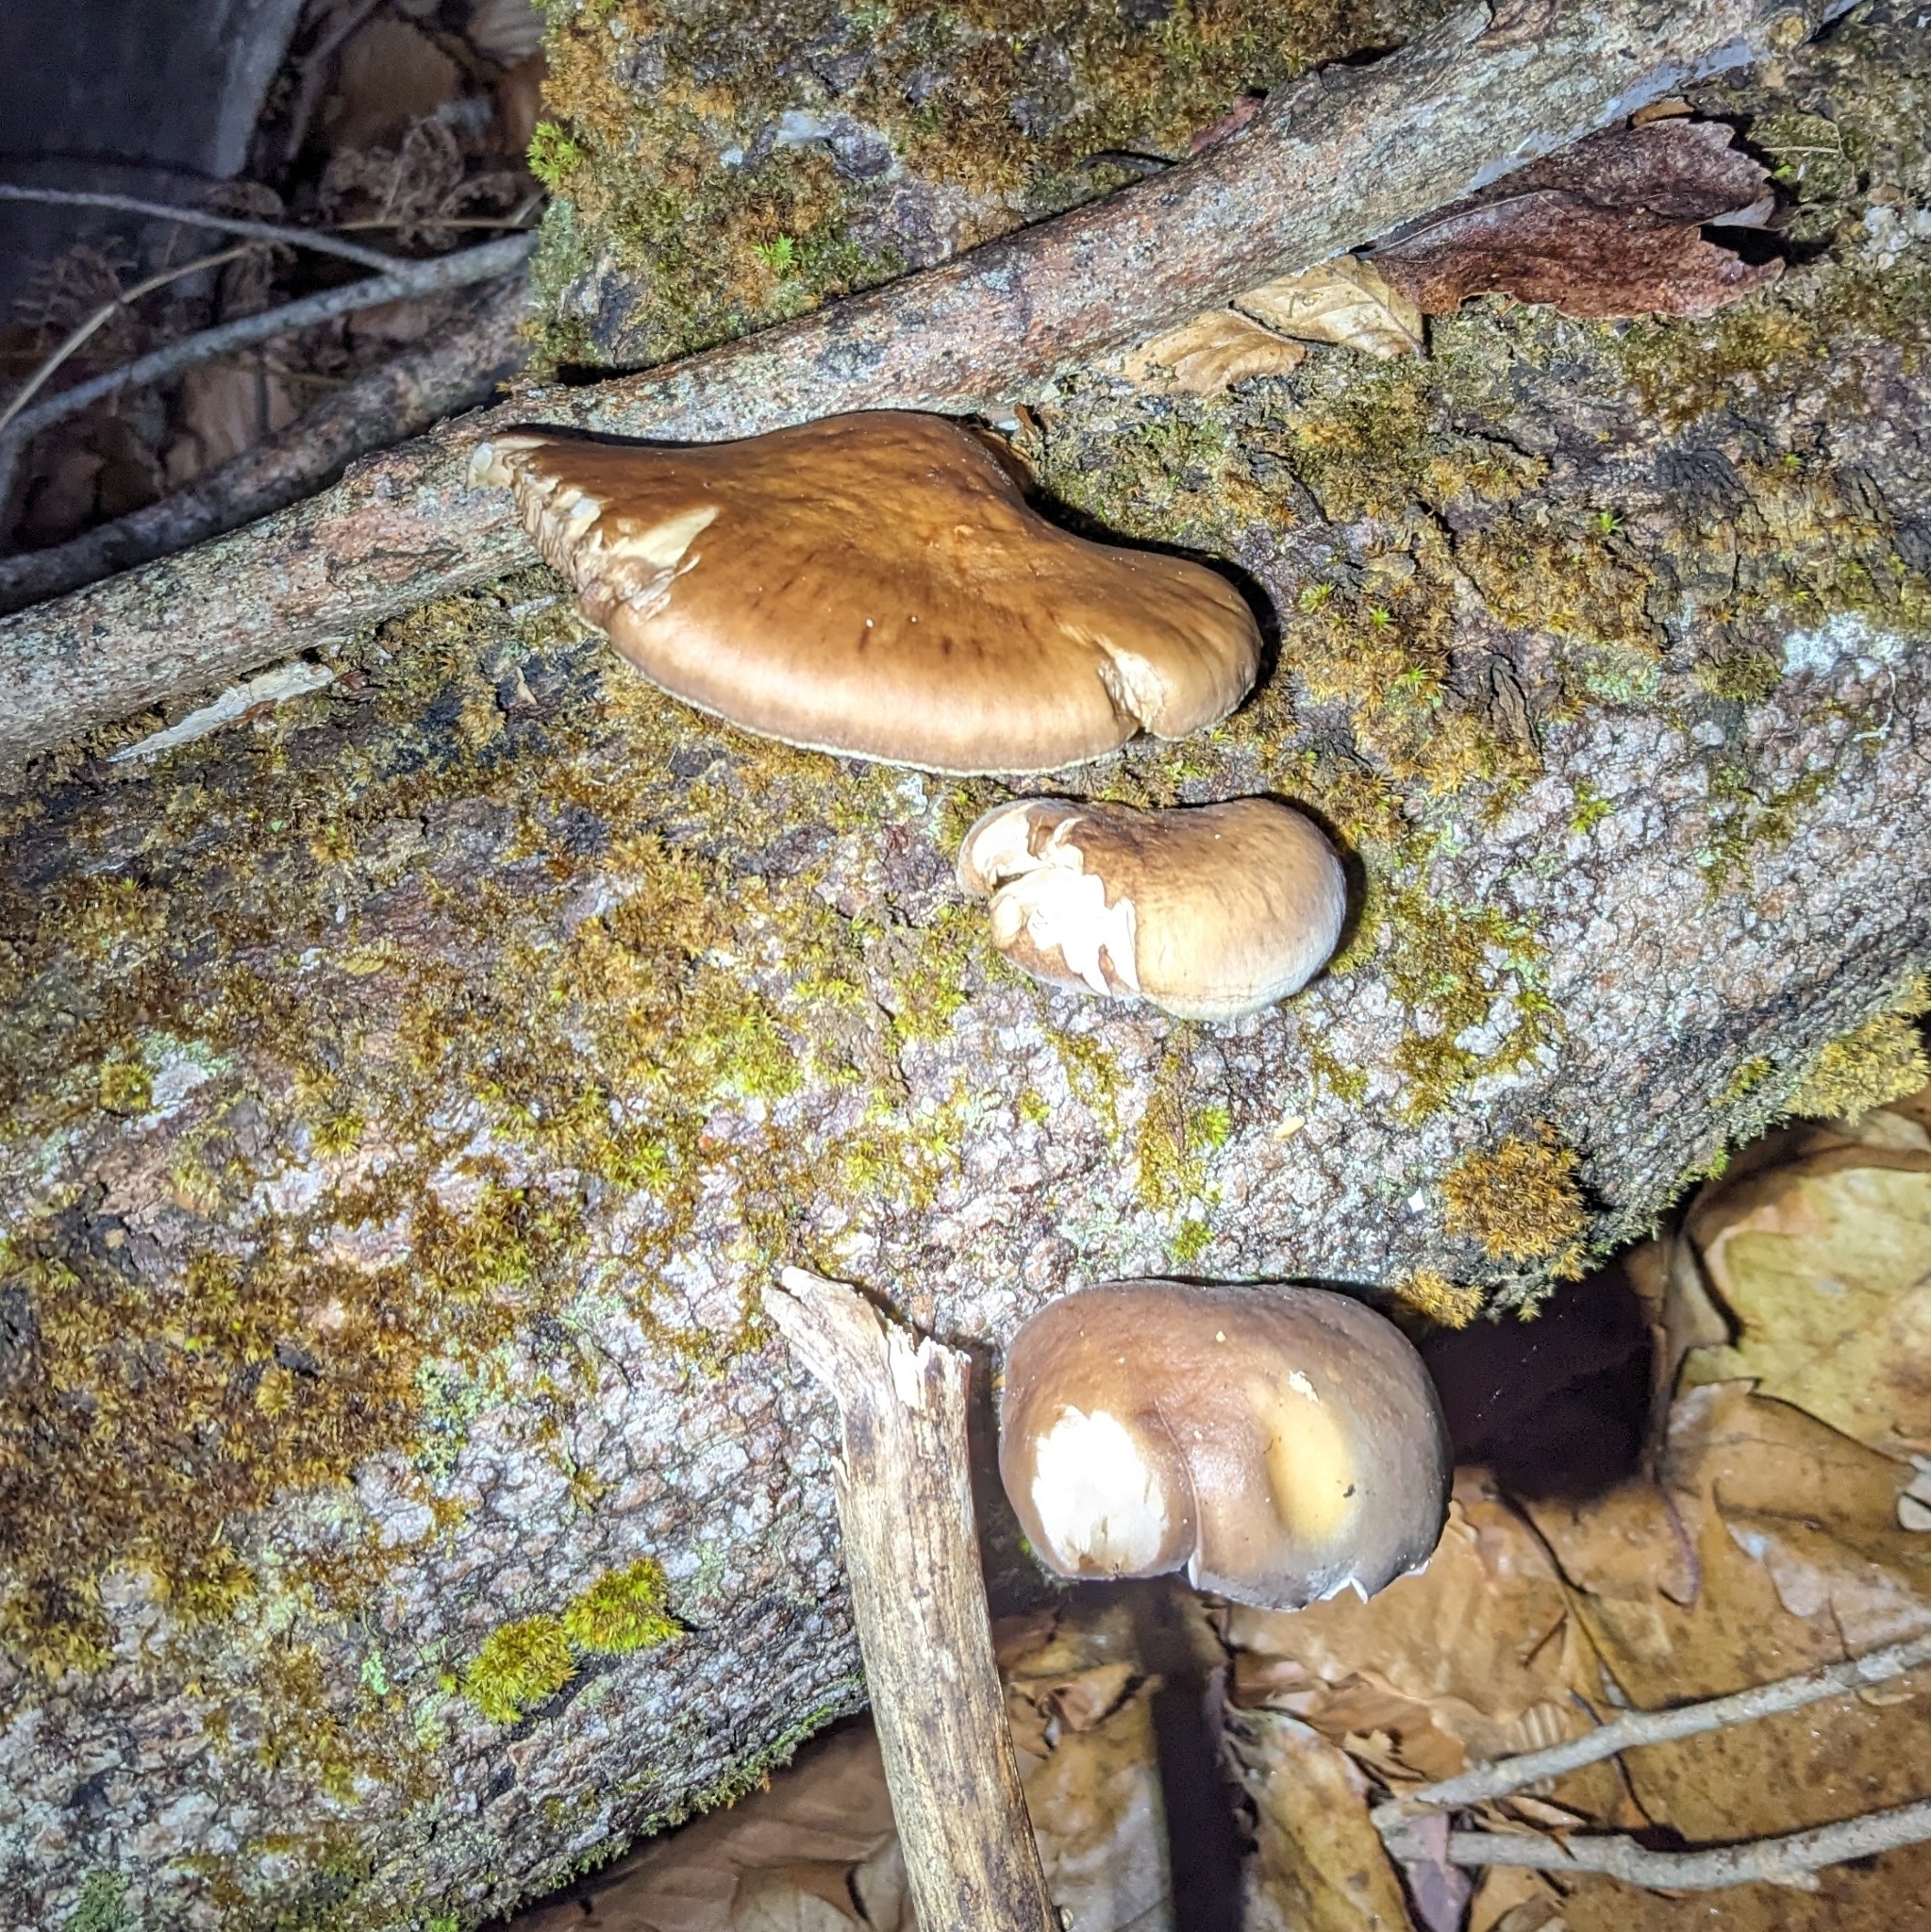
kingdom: Fungi
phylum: Basidiomycota
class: Agaricomycetes
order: Agaricales
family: Sarcomyxaceae
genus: Sarcomyxa
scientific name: Sarcomyxa serotina
